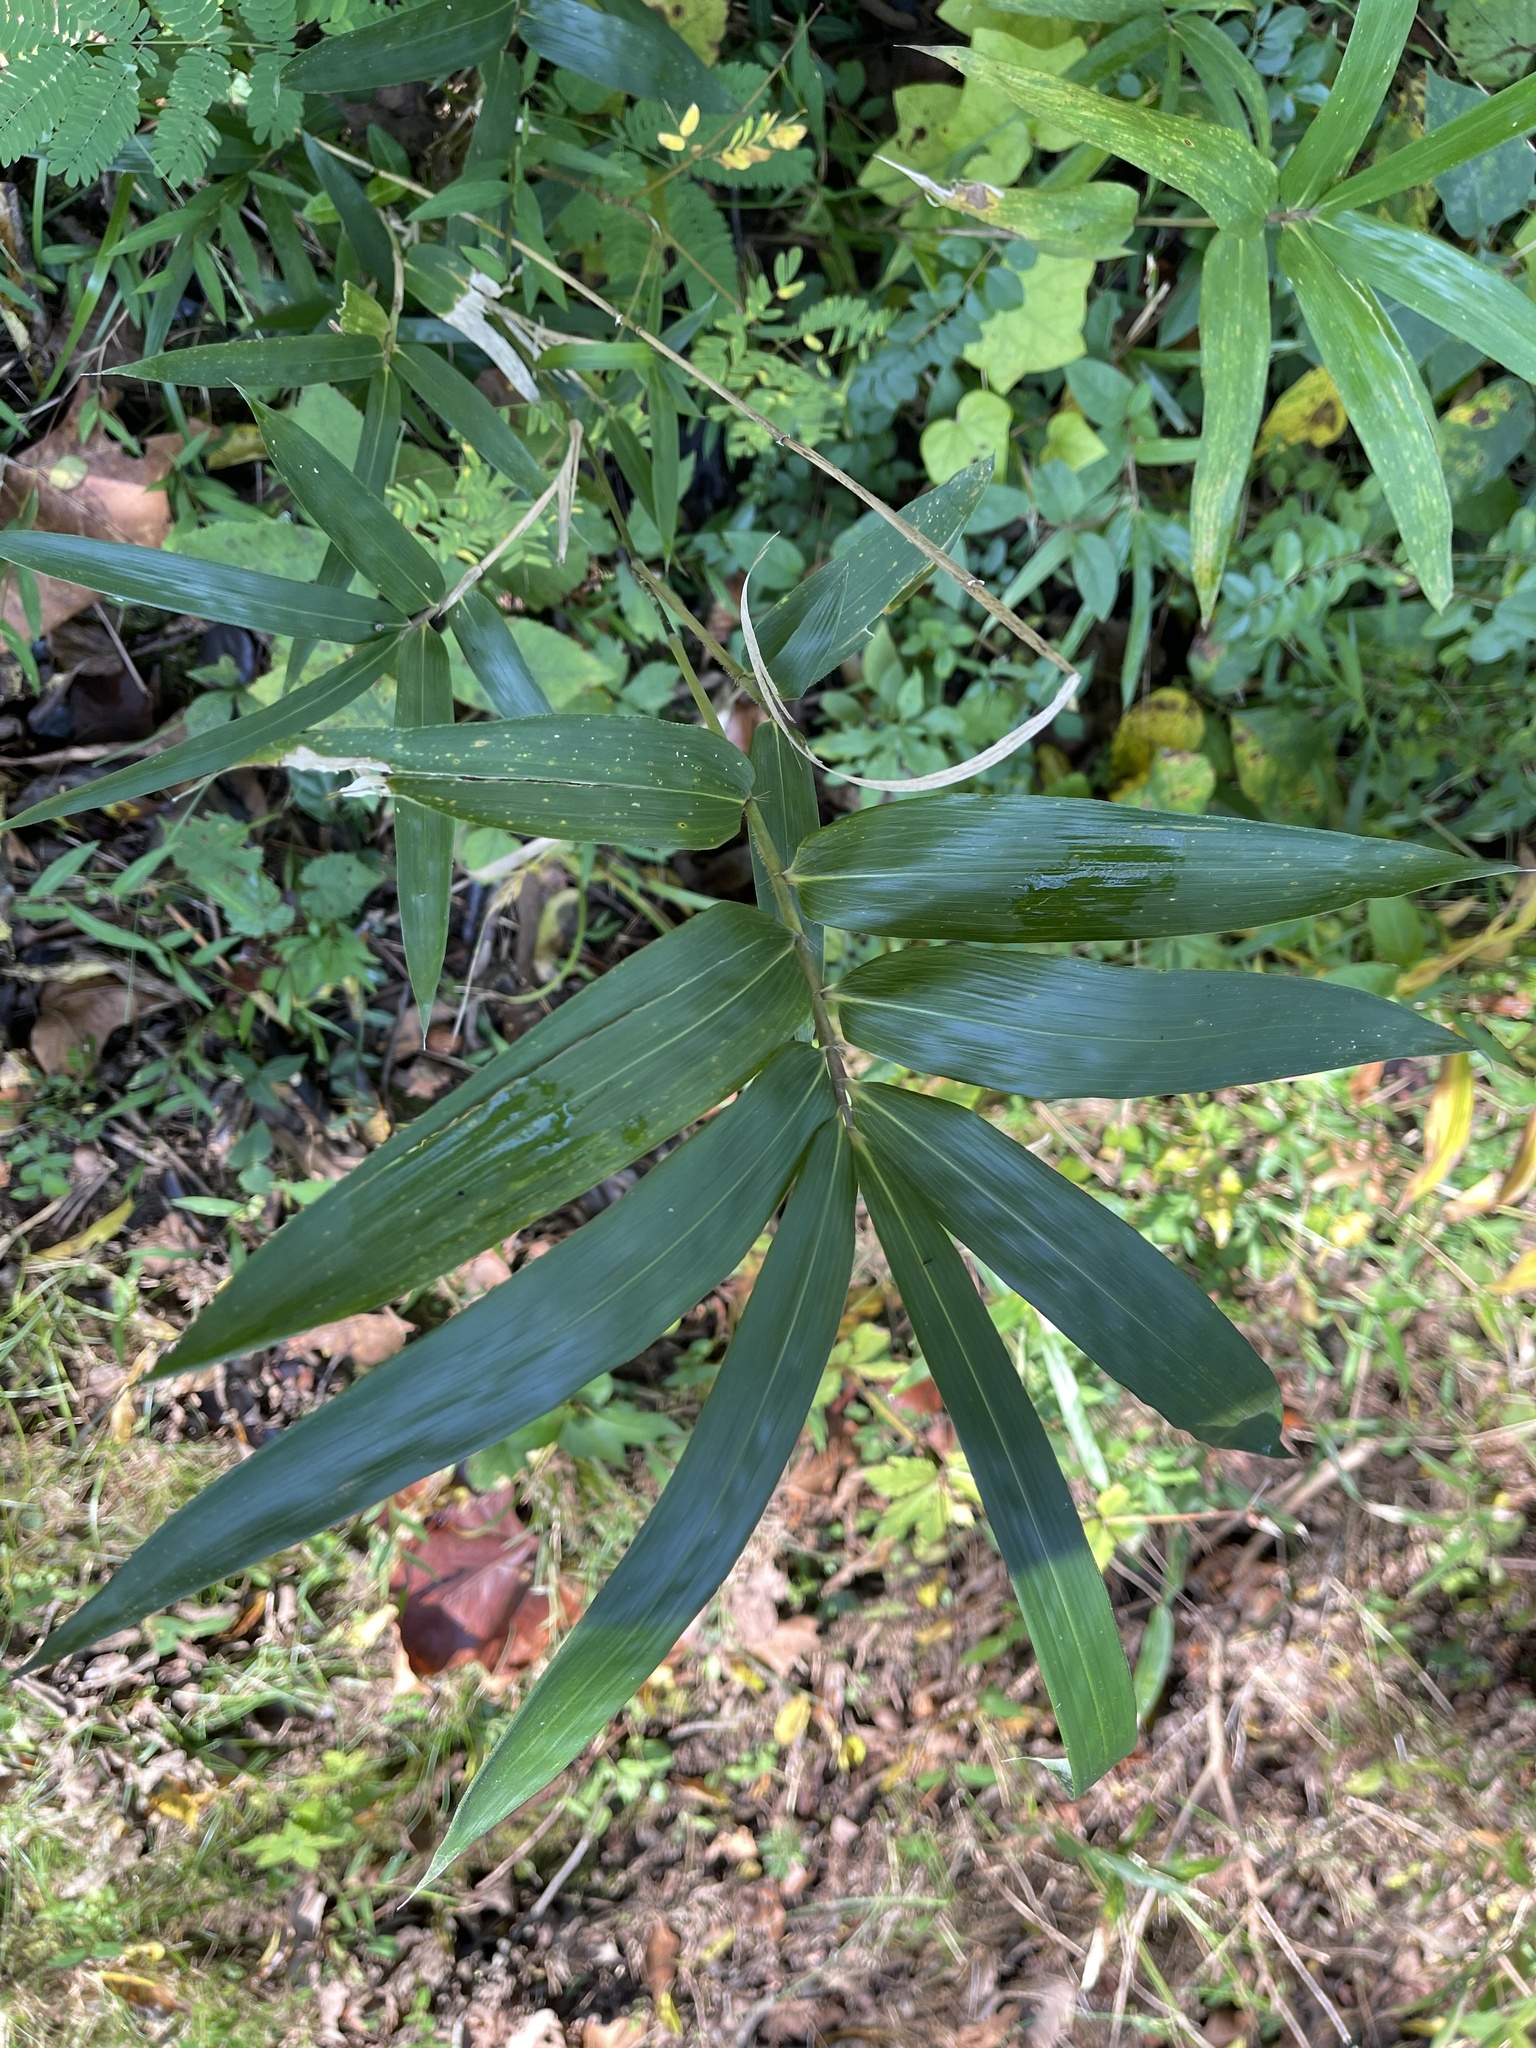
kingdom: Plantae
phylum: Tracheophyta
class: Liliopsida
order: Poales
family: Poaceae
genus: Arundinaria
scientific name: Arundinaria gigantea
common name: Giant cane
